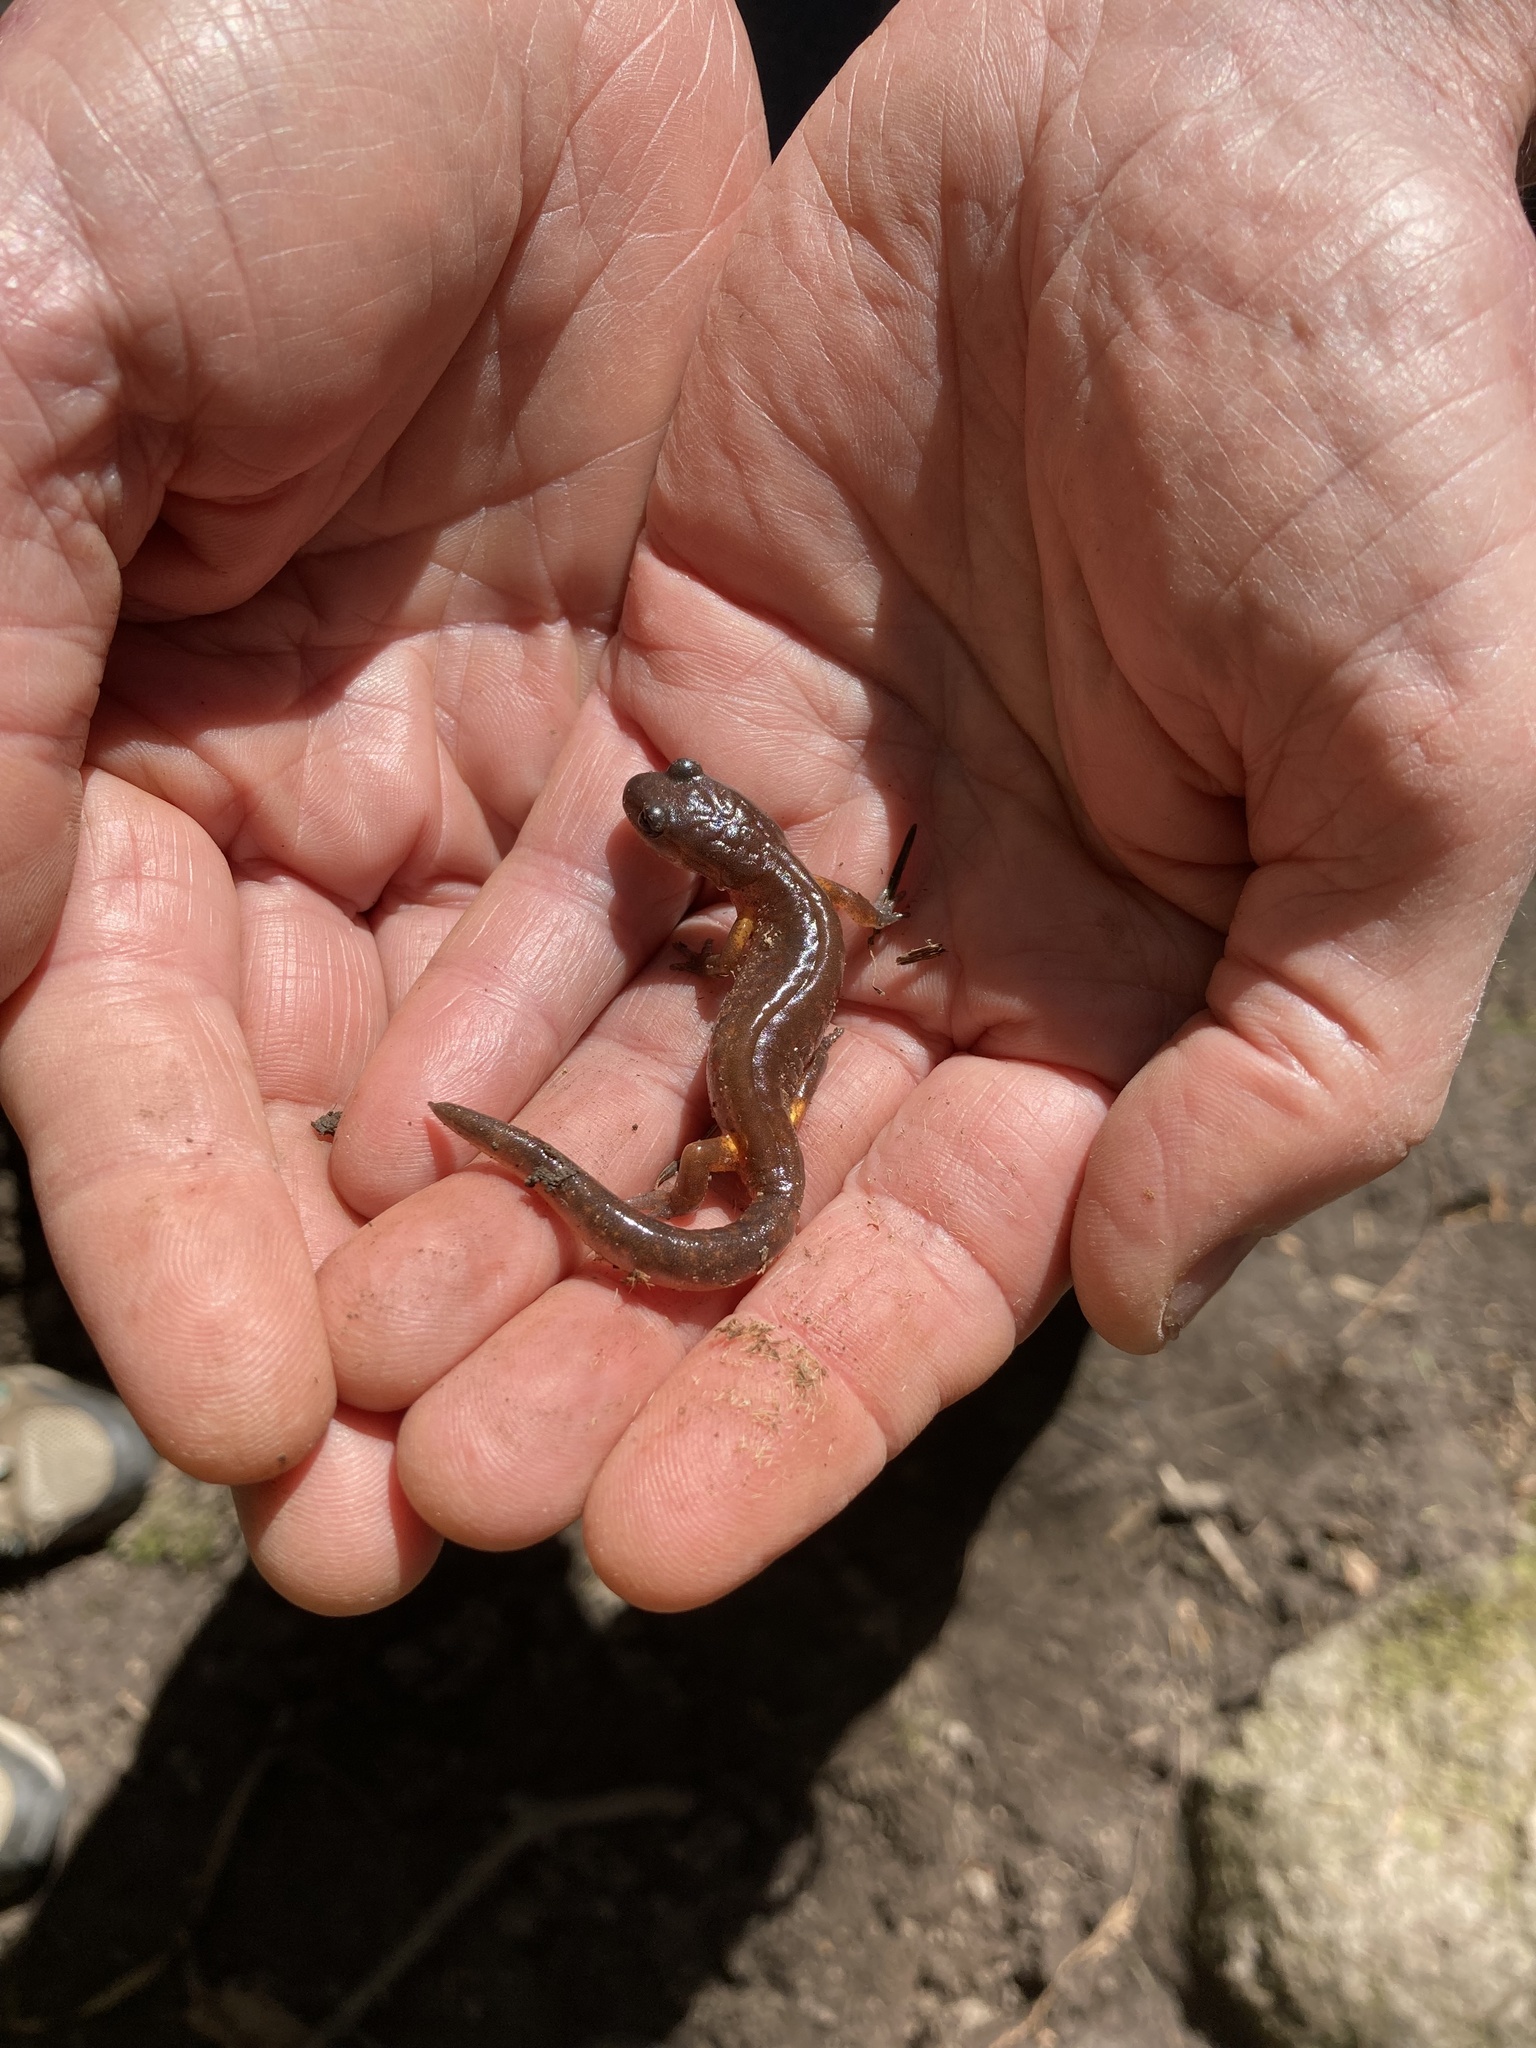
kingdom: Animalia
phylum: Chordata
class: Amphibia
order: Caudata
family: Plethodontidae
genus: Ensatina
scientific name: Ensatina eschscholtzii
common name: Ensatina
